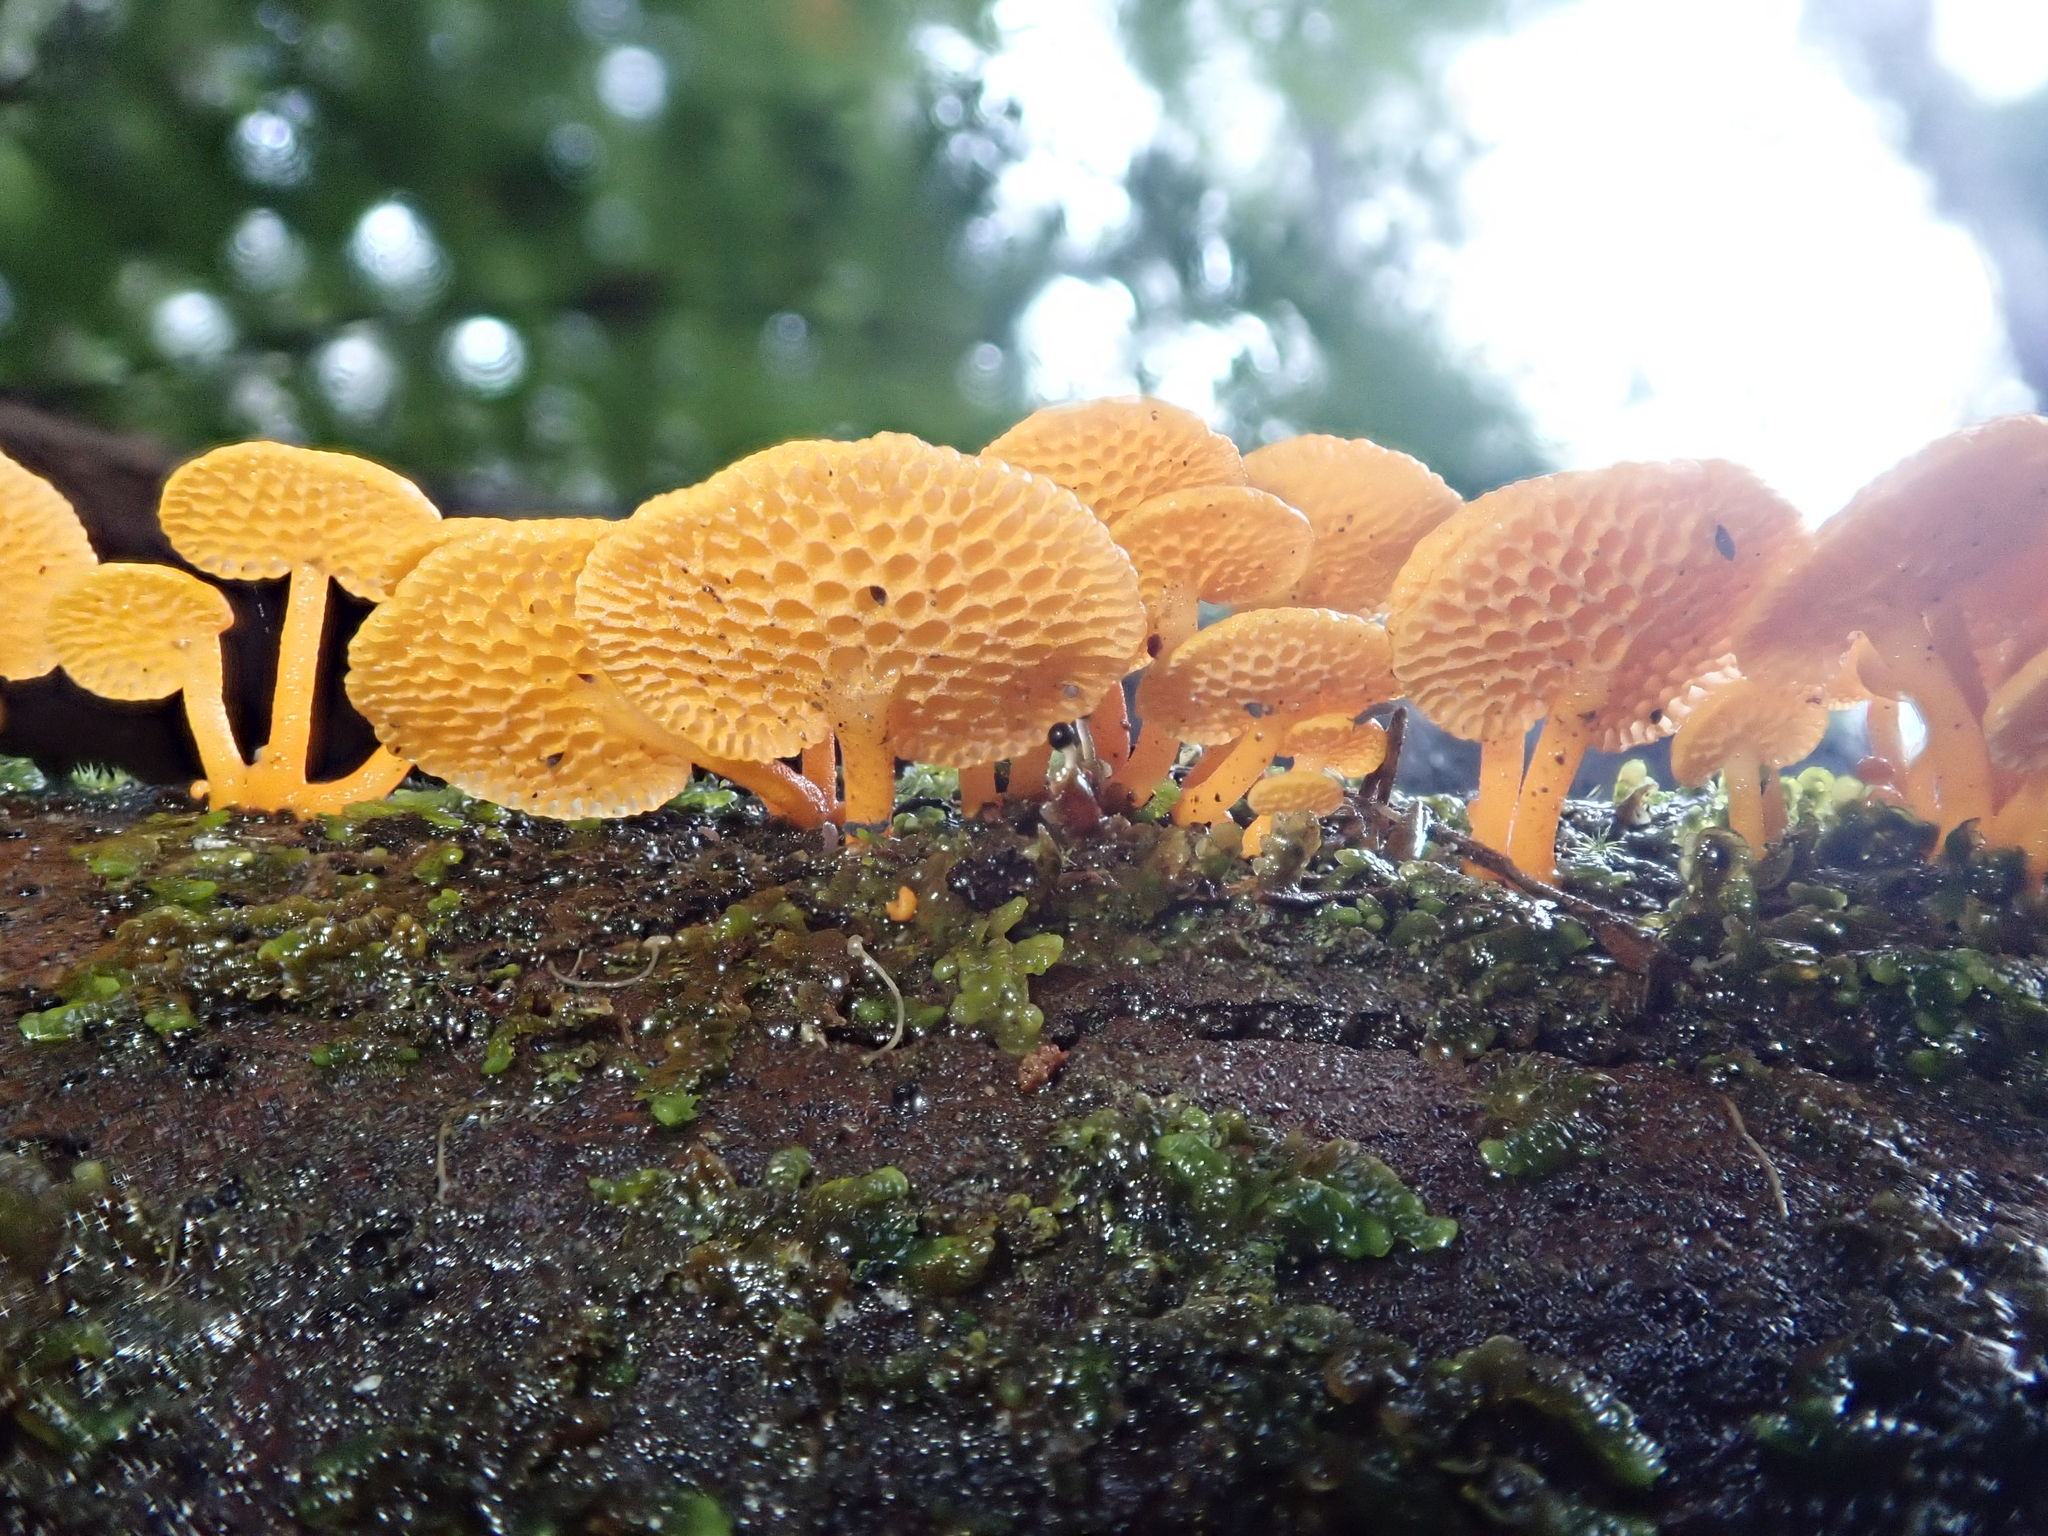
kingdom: Fungi
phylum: Basidiomycota
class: Agaricomycetes
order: Agaricales
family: Mycenaceae
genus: Favolaschia
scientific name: Favolaschia claudopus
